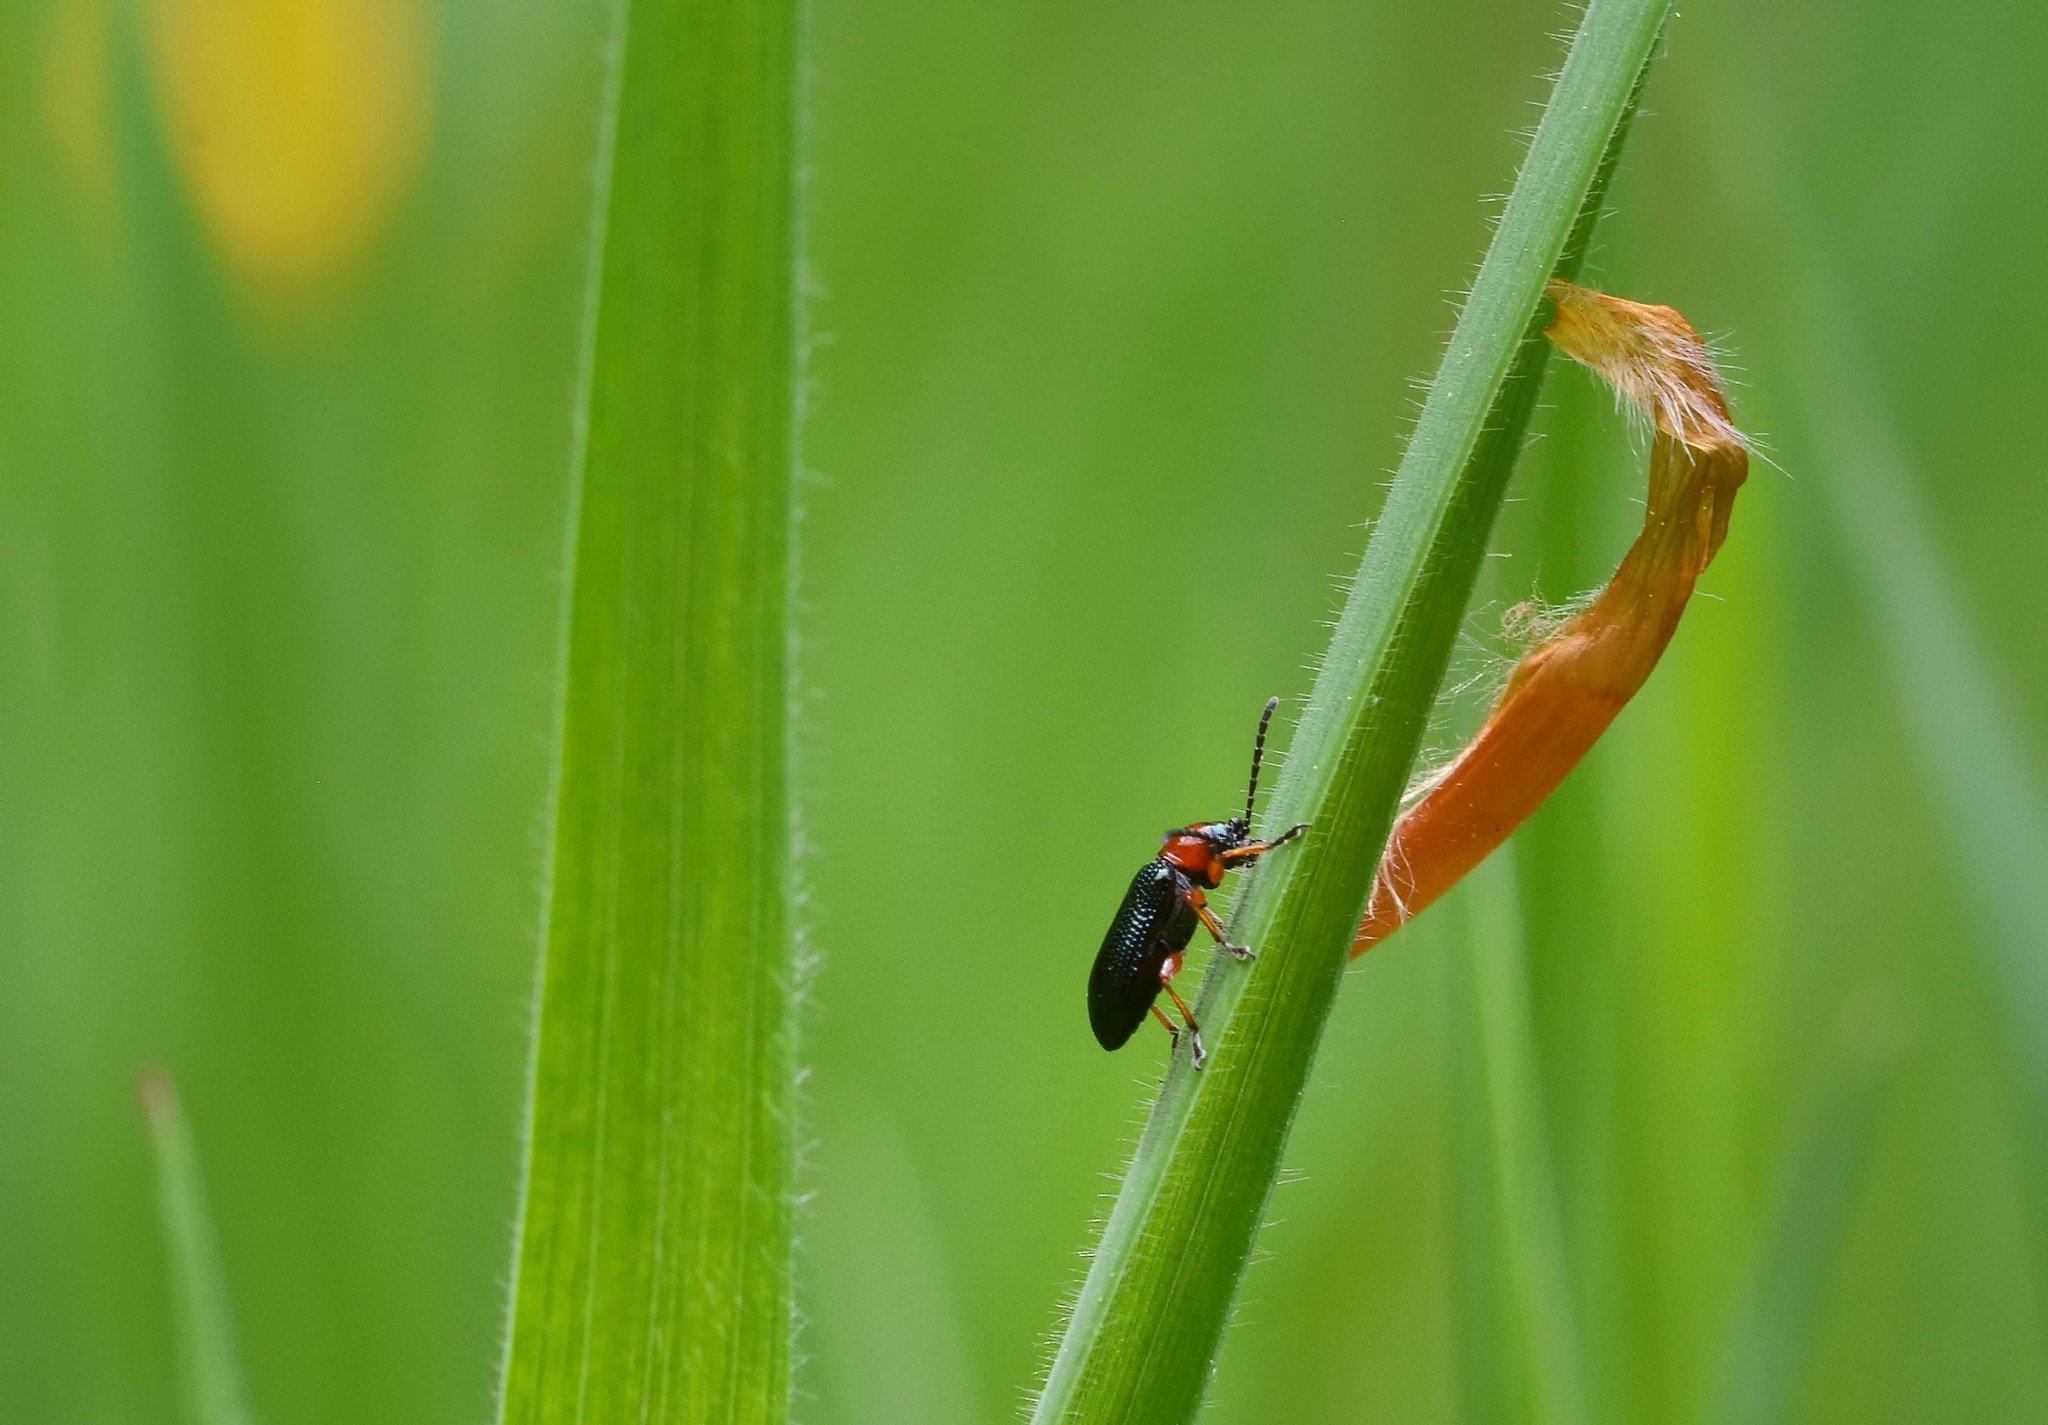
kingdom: Animalia
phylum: Arthropoda
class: Insecta
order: Coleoptera
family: Chrysomelidae
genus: Oulema
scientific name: Oulema
